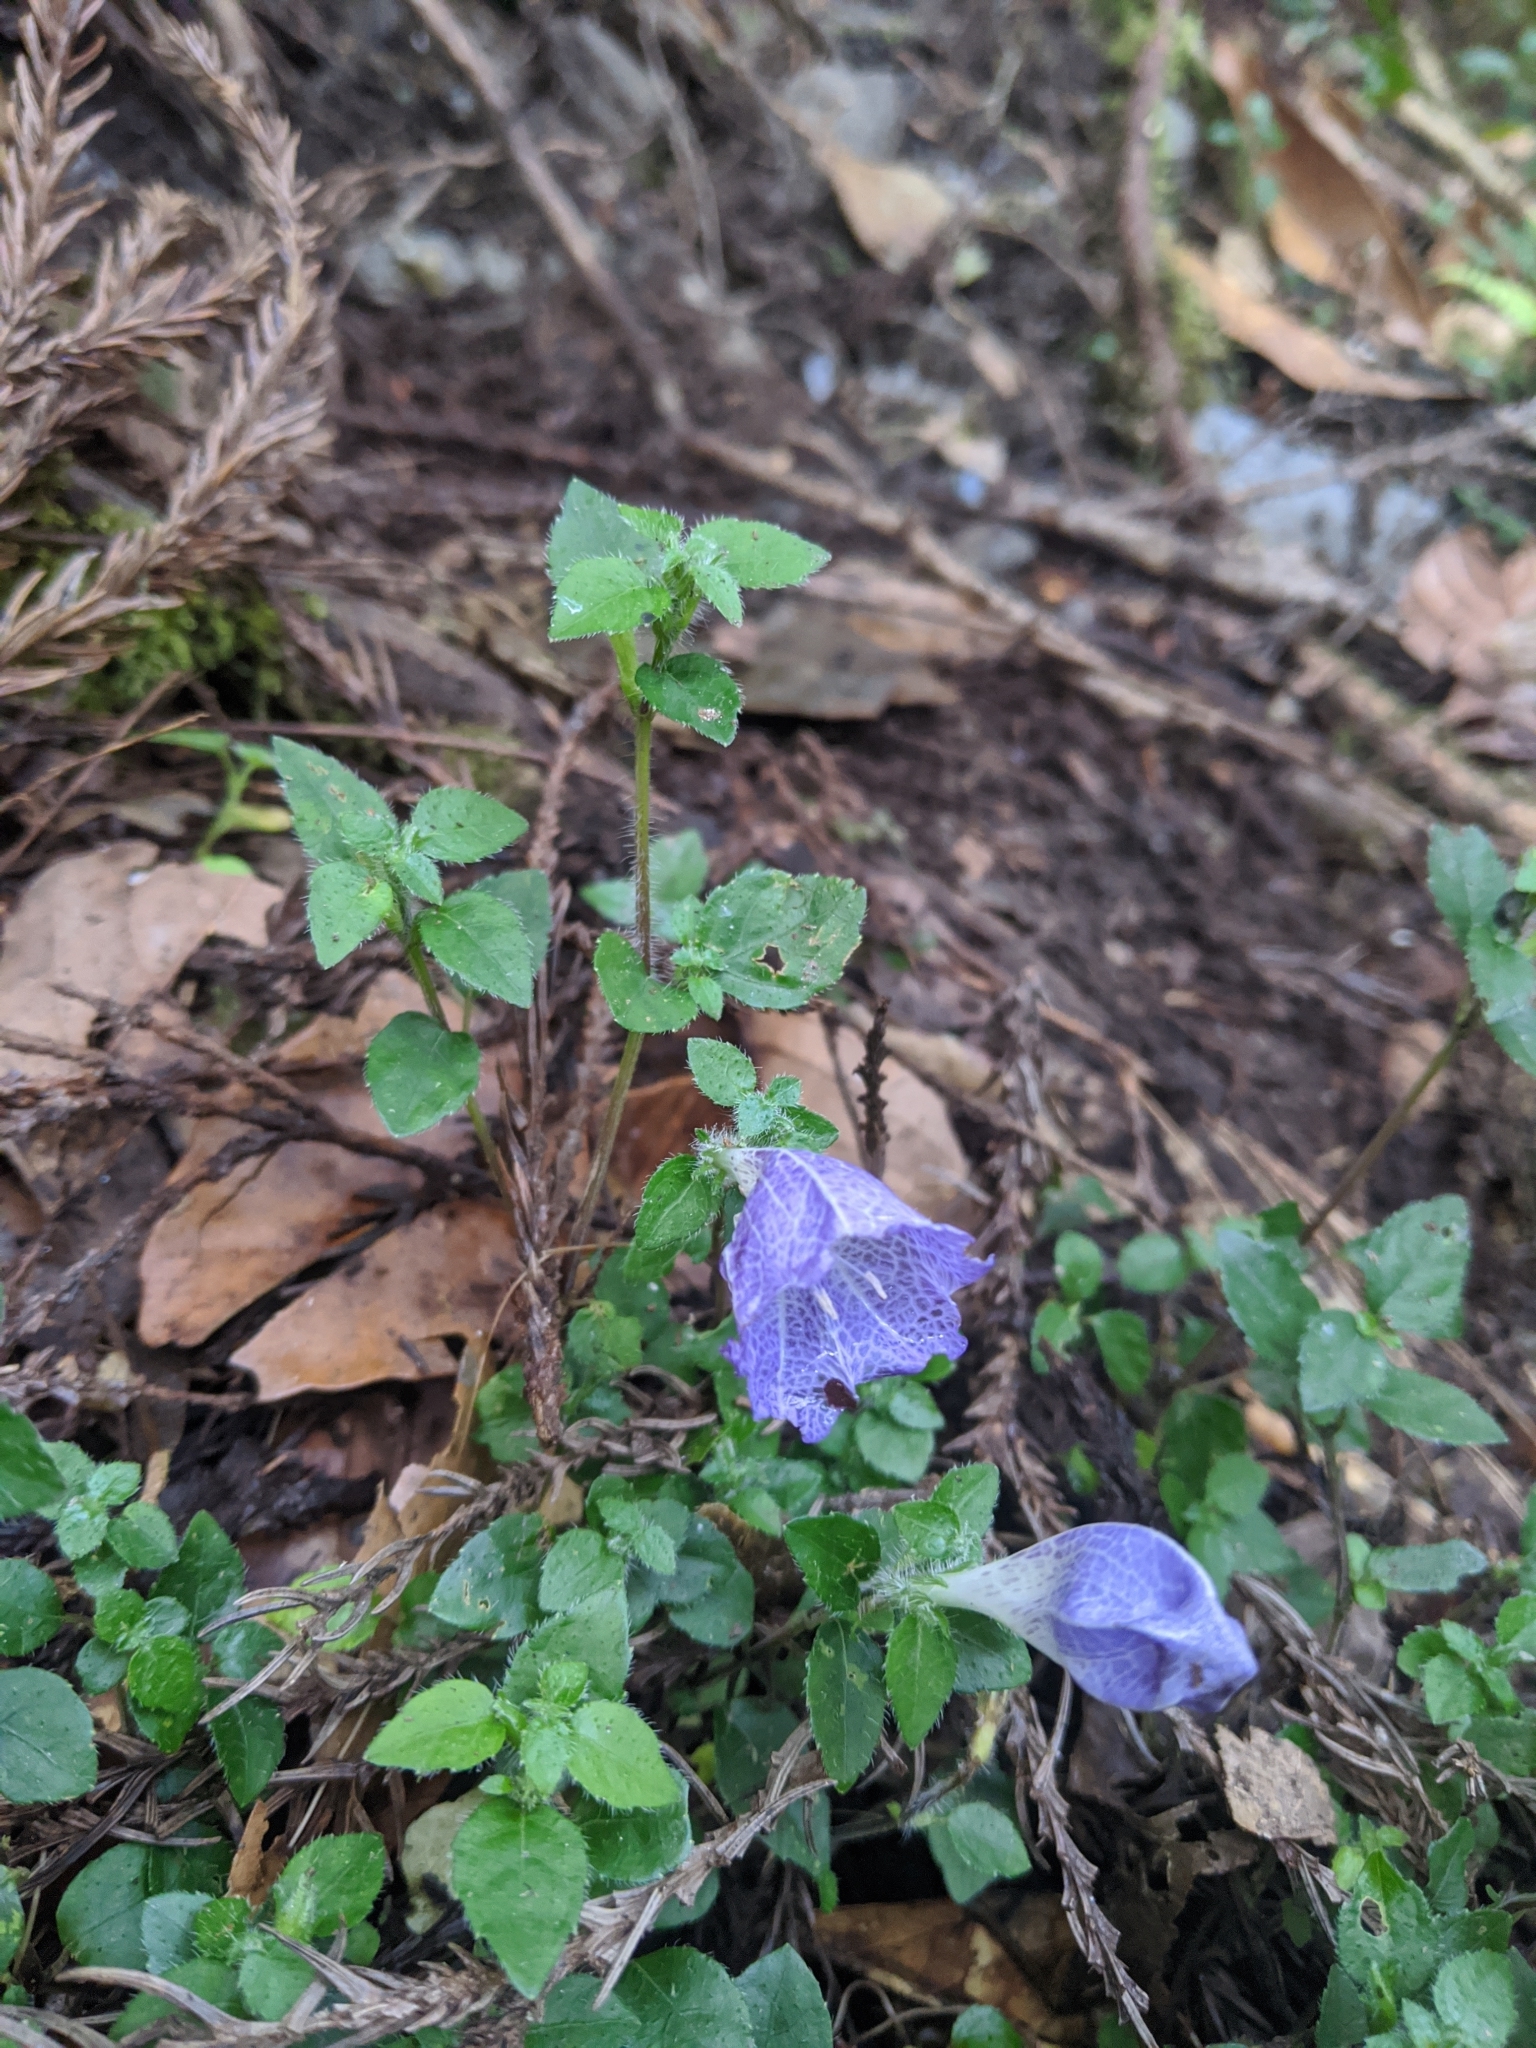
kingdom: Plantae
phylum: Tracheophyta
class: Magnoliopsida
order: Lamiales
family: Acanthaceae
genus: Strobilanthes
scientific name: Strobilanthes rankanensis
